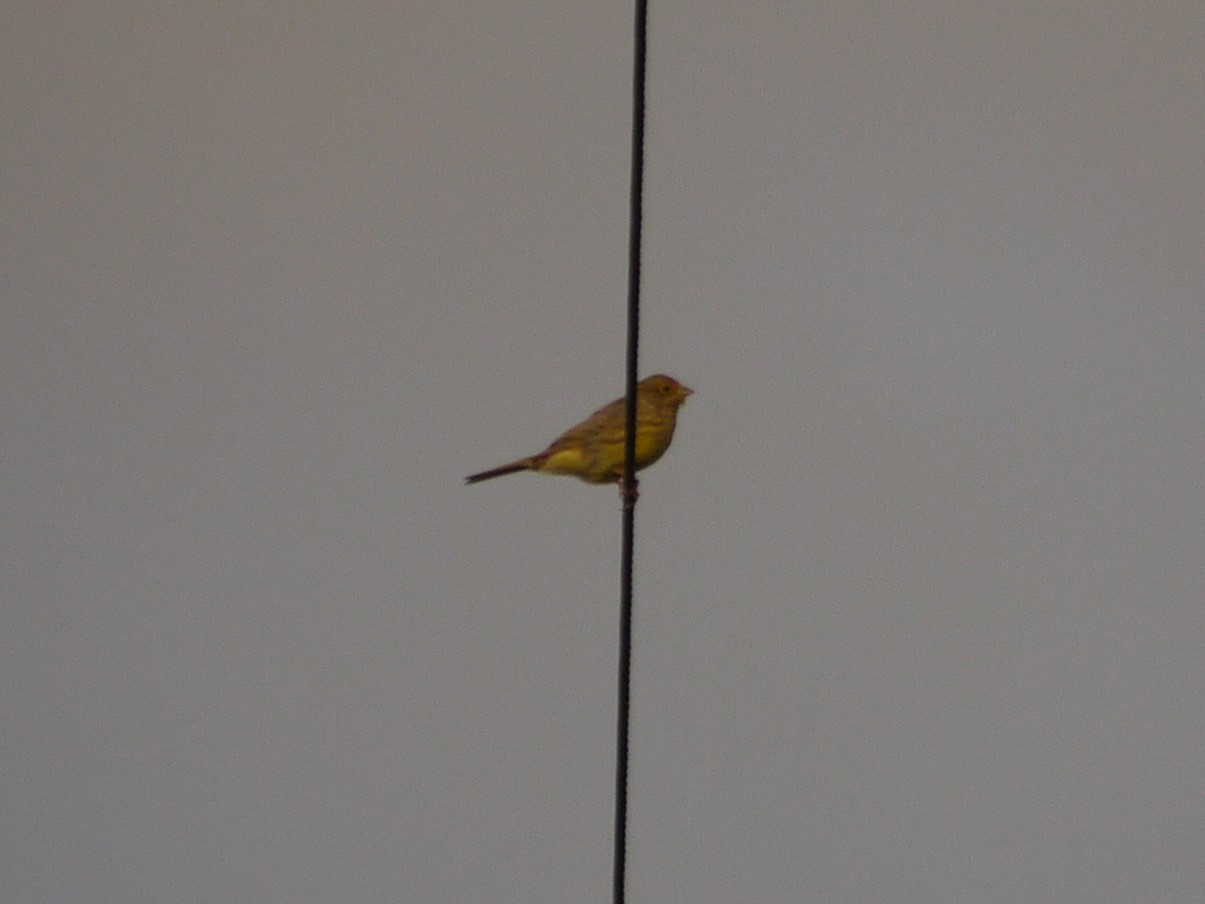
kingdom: Animalia
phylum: Chordata
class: Aves
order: Passeriformes
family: Emberizidae
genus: Emberiza
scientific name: Emberiza citrinella
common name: Yellowhammer
